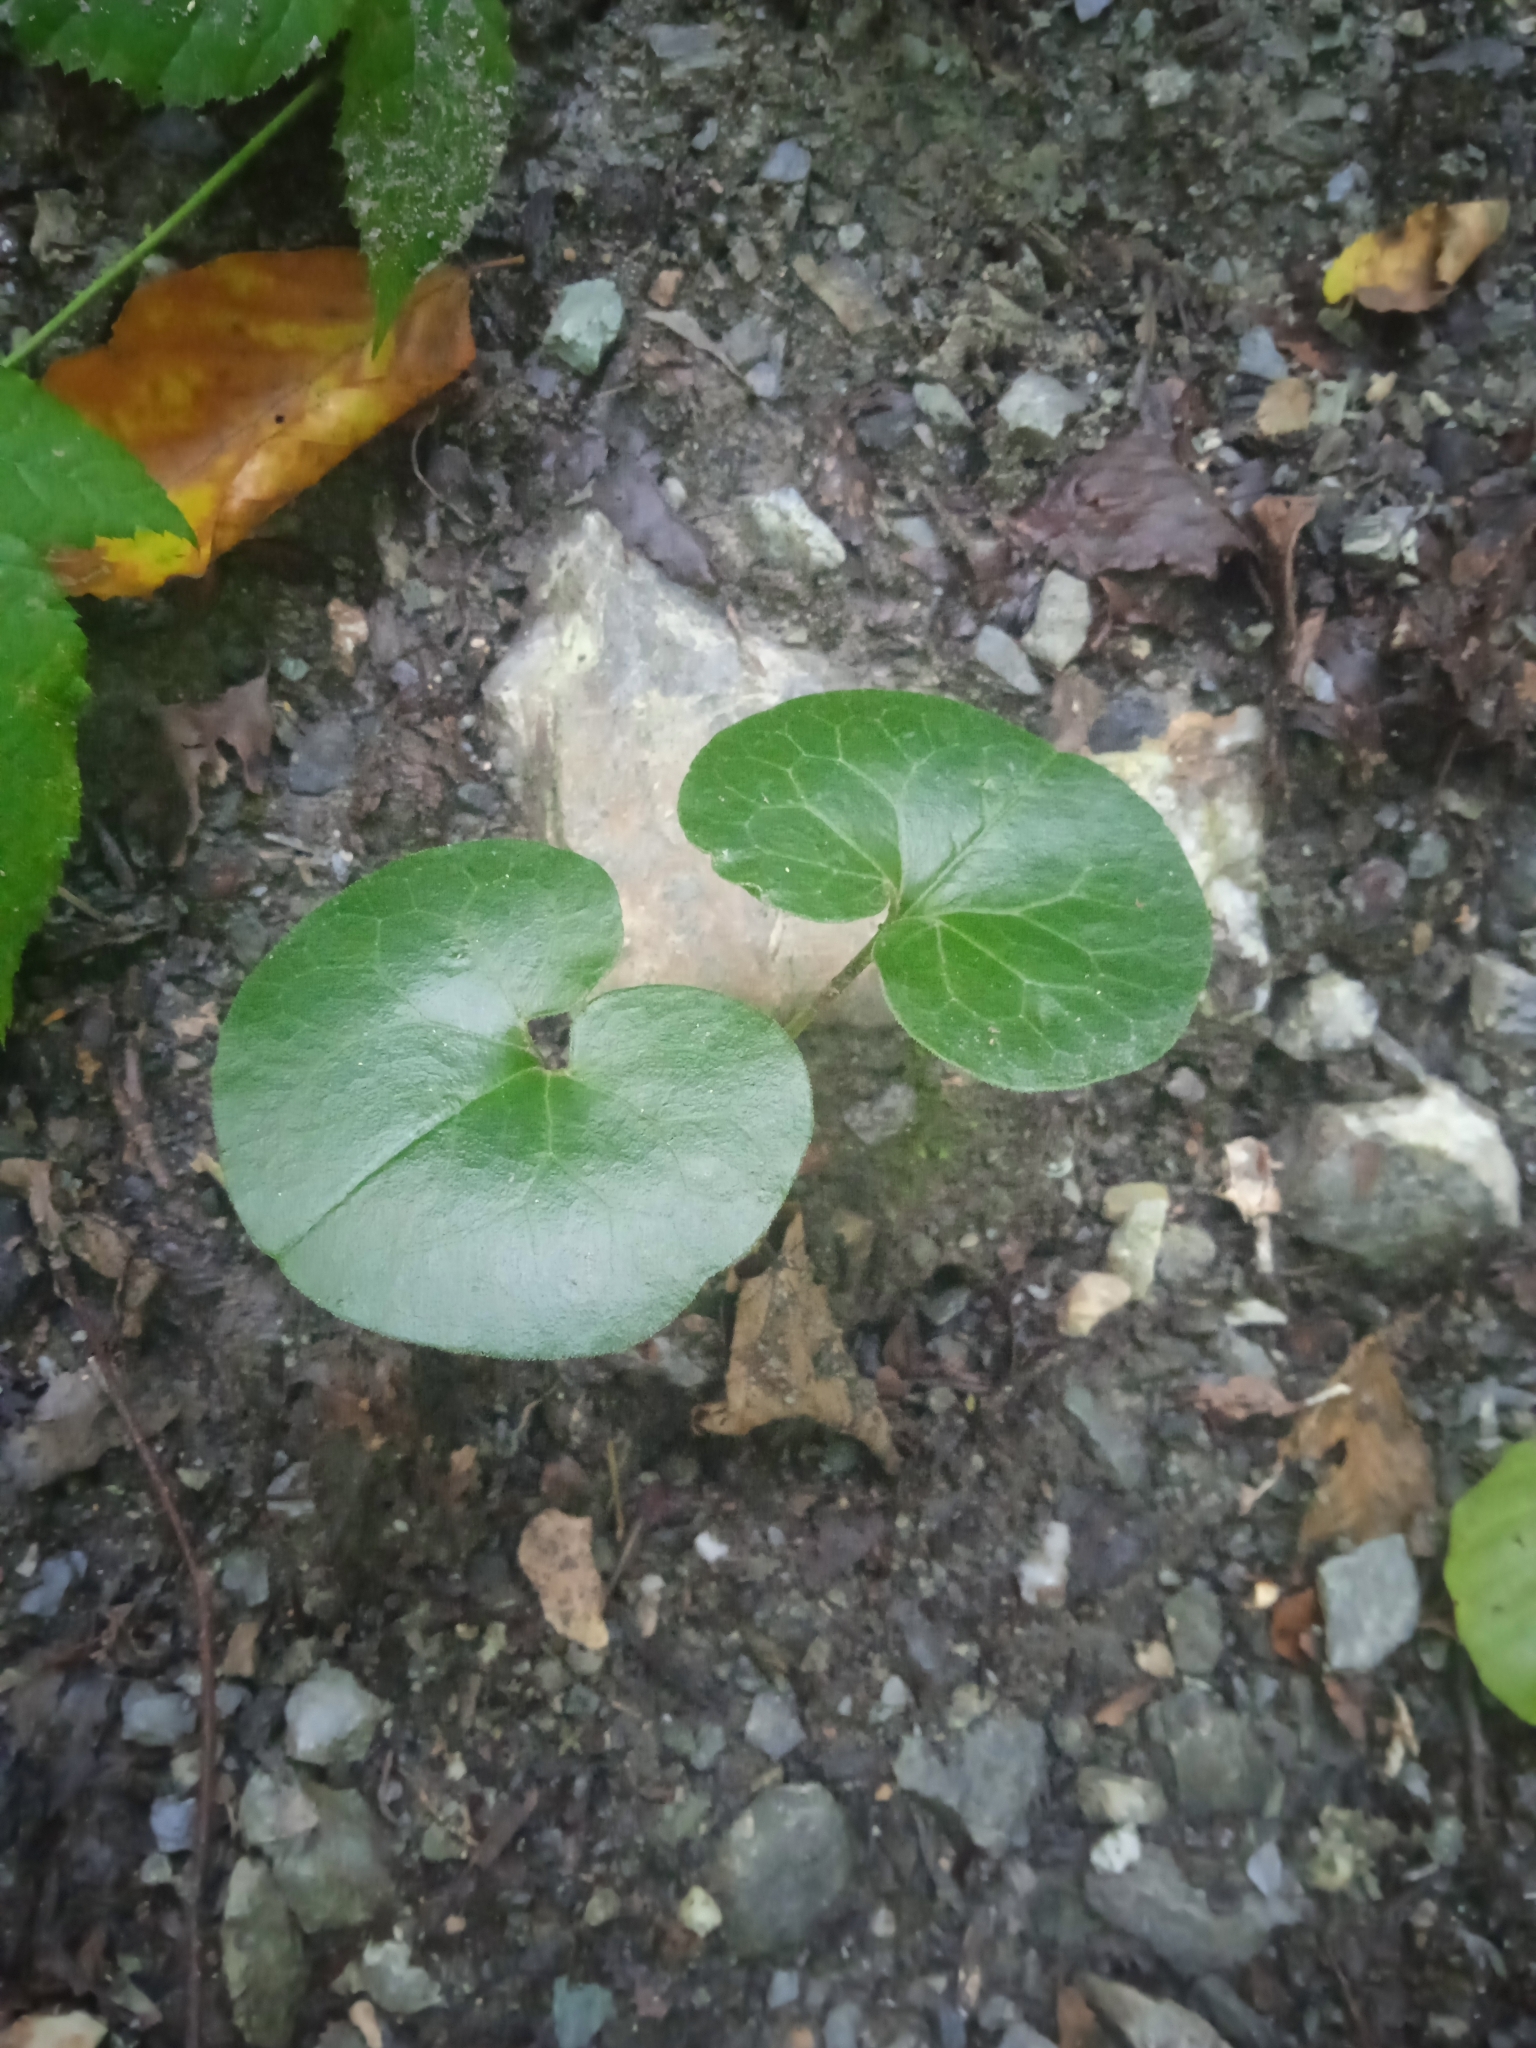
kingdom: Plantae
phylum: Tracheophyta
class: Magnoliopsida
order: Piperales
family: Aristolochiaceae
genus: Asarum
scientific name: Asarum europaeum
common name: Asarabacca
